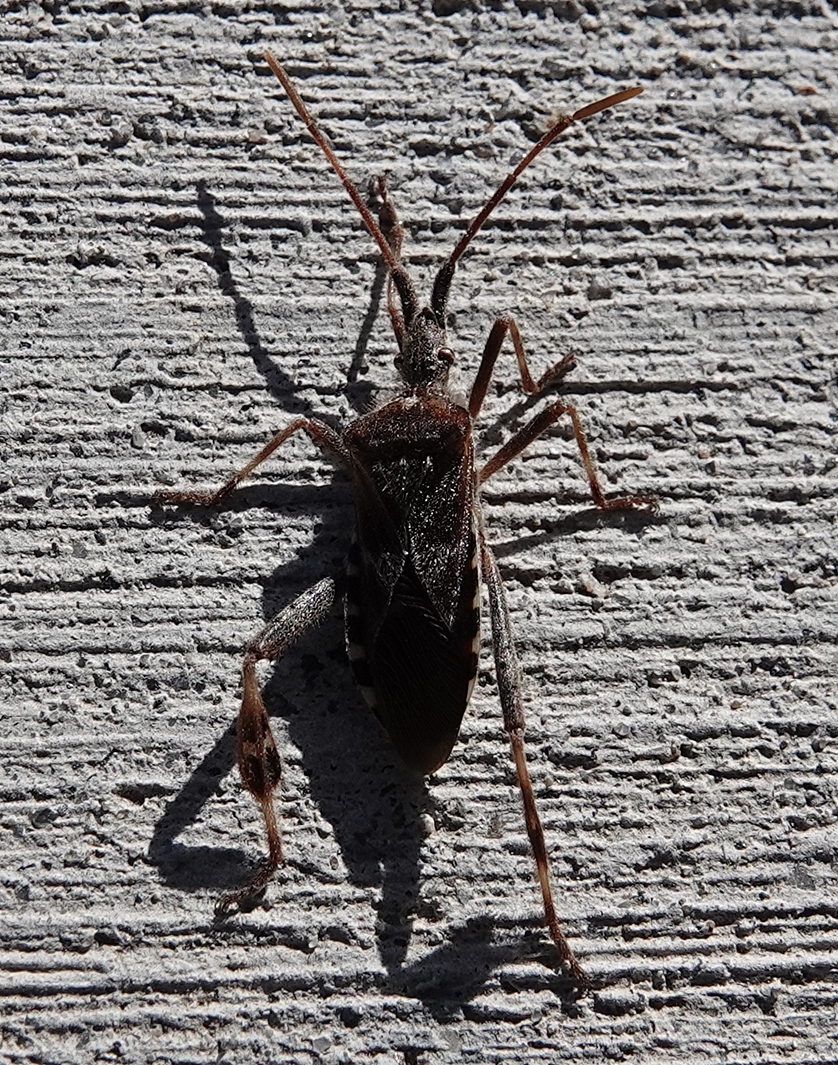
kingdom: Animalia
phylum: Arthropoda
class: Insecta
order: Hemiptera
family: Coreidae
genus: Leptoglossus
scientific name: Leptoglossus occidentalis
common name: Western conifer-seed bug
